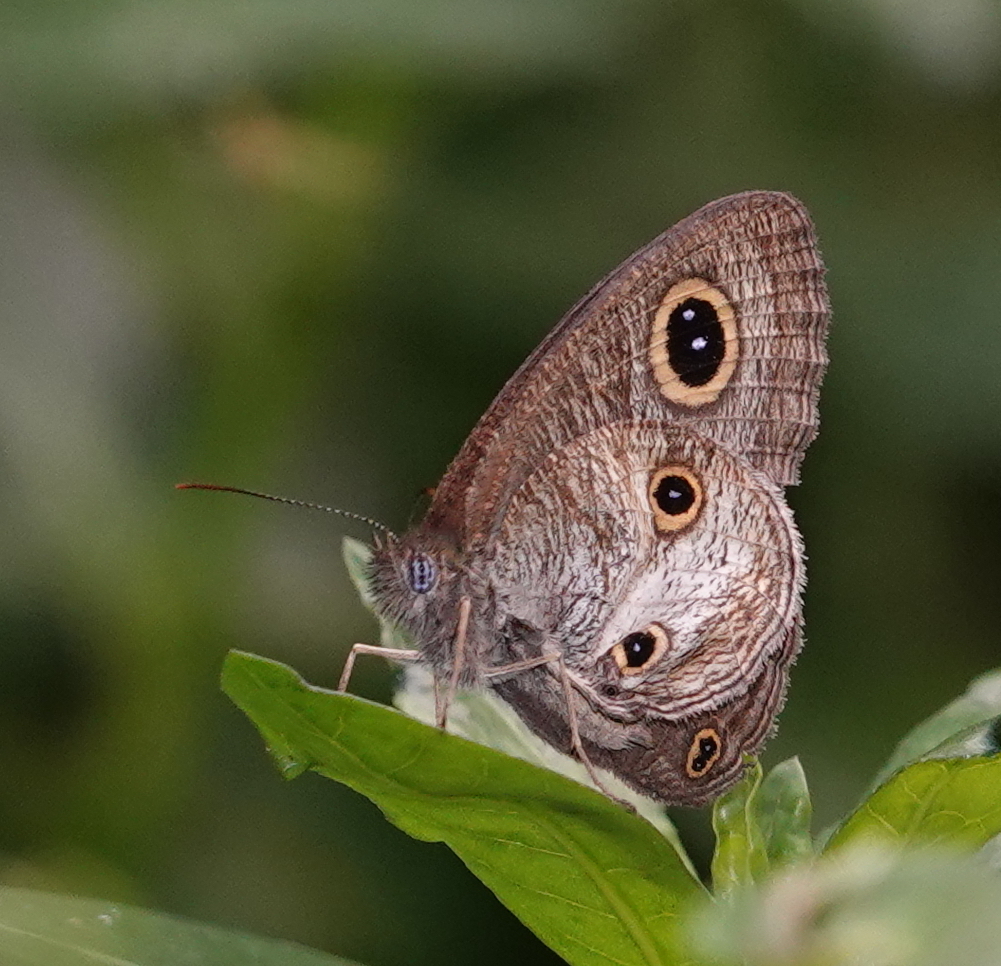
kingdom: Animalia
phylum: Arthropoda
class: Insecta
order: Lepidoptera
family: Nymphalidae
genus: Ypthima
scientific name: Ypthima pandocus
